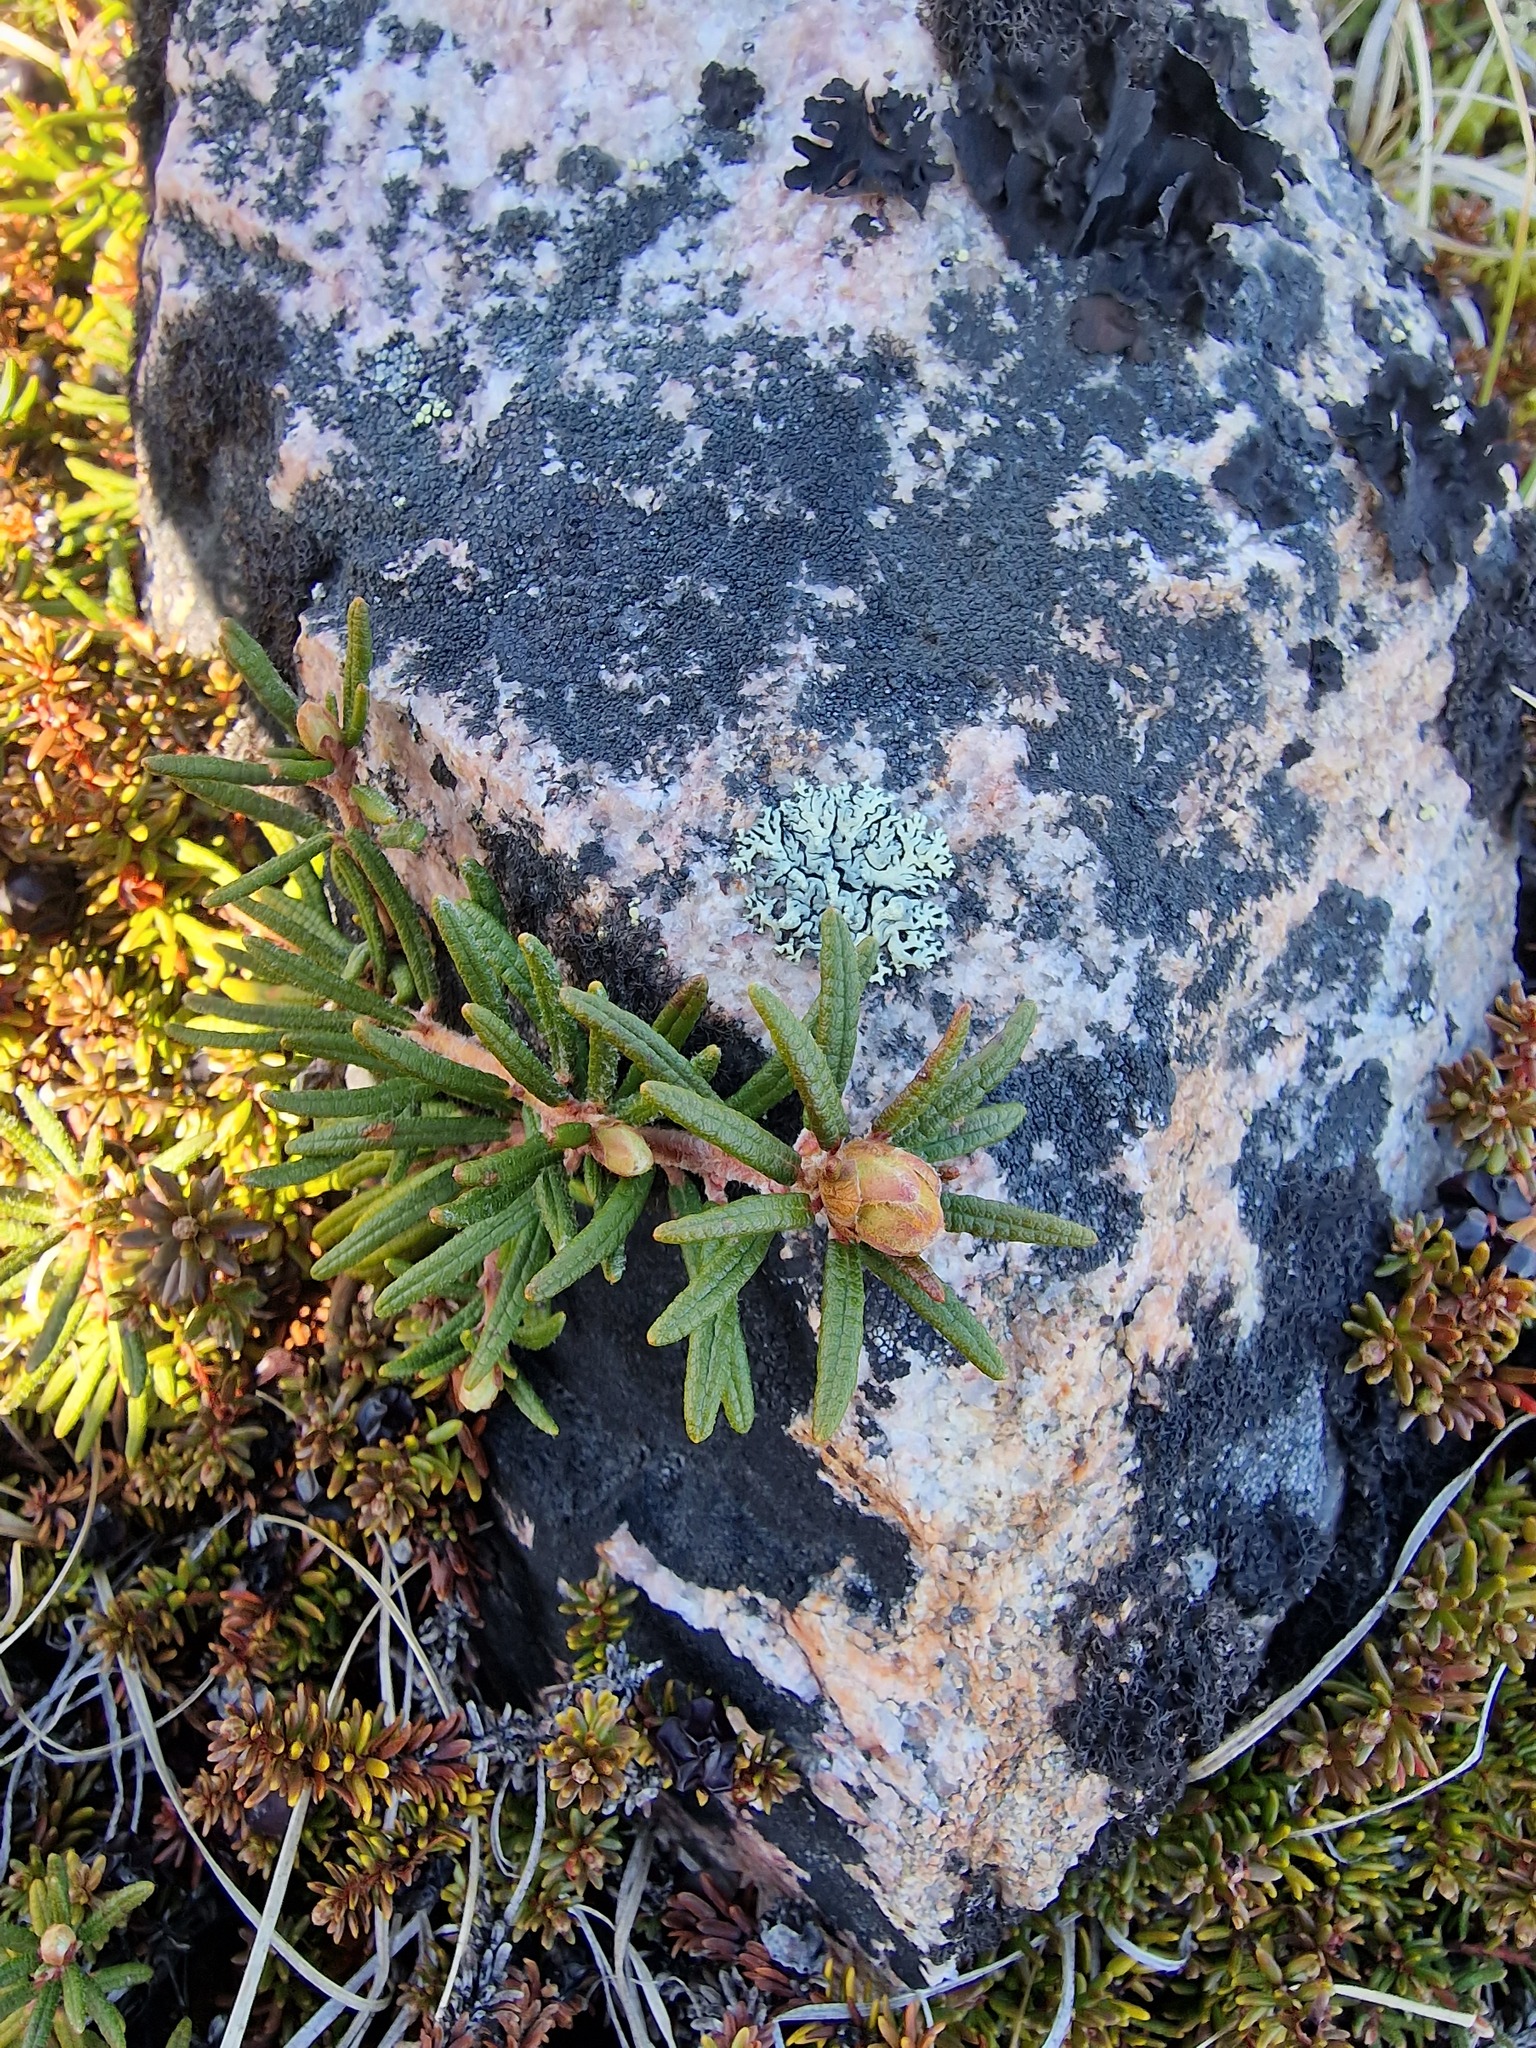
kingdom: Plantae
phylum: Tracheophyta
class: Magnoliopsida
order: Ericales
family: Ericaceae
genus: Rhododendron
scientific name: Rhododendron tomentosum
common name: Marsh labrador tea
